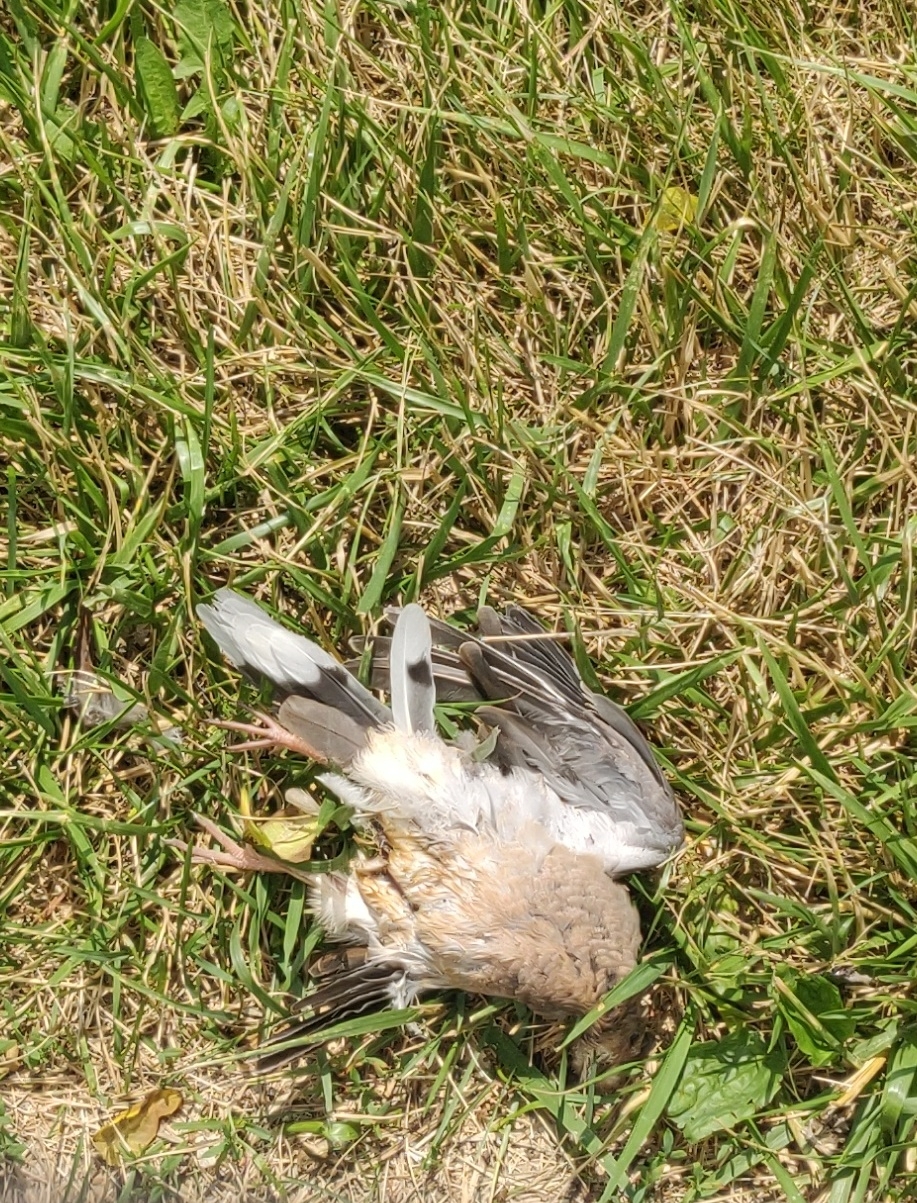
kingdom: Animalia
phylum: Chordata
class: Aves
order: Columbiformes
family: Columbidae
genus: Zenaida
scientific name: Zenaida macroura
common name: Mourning dove
